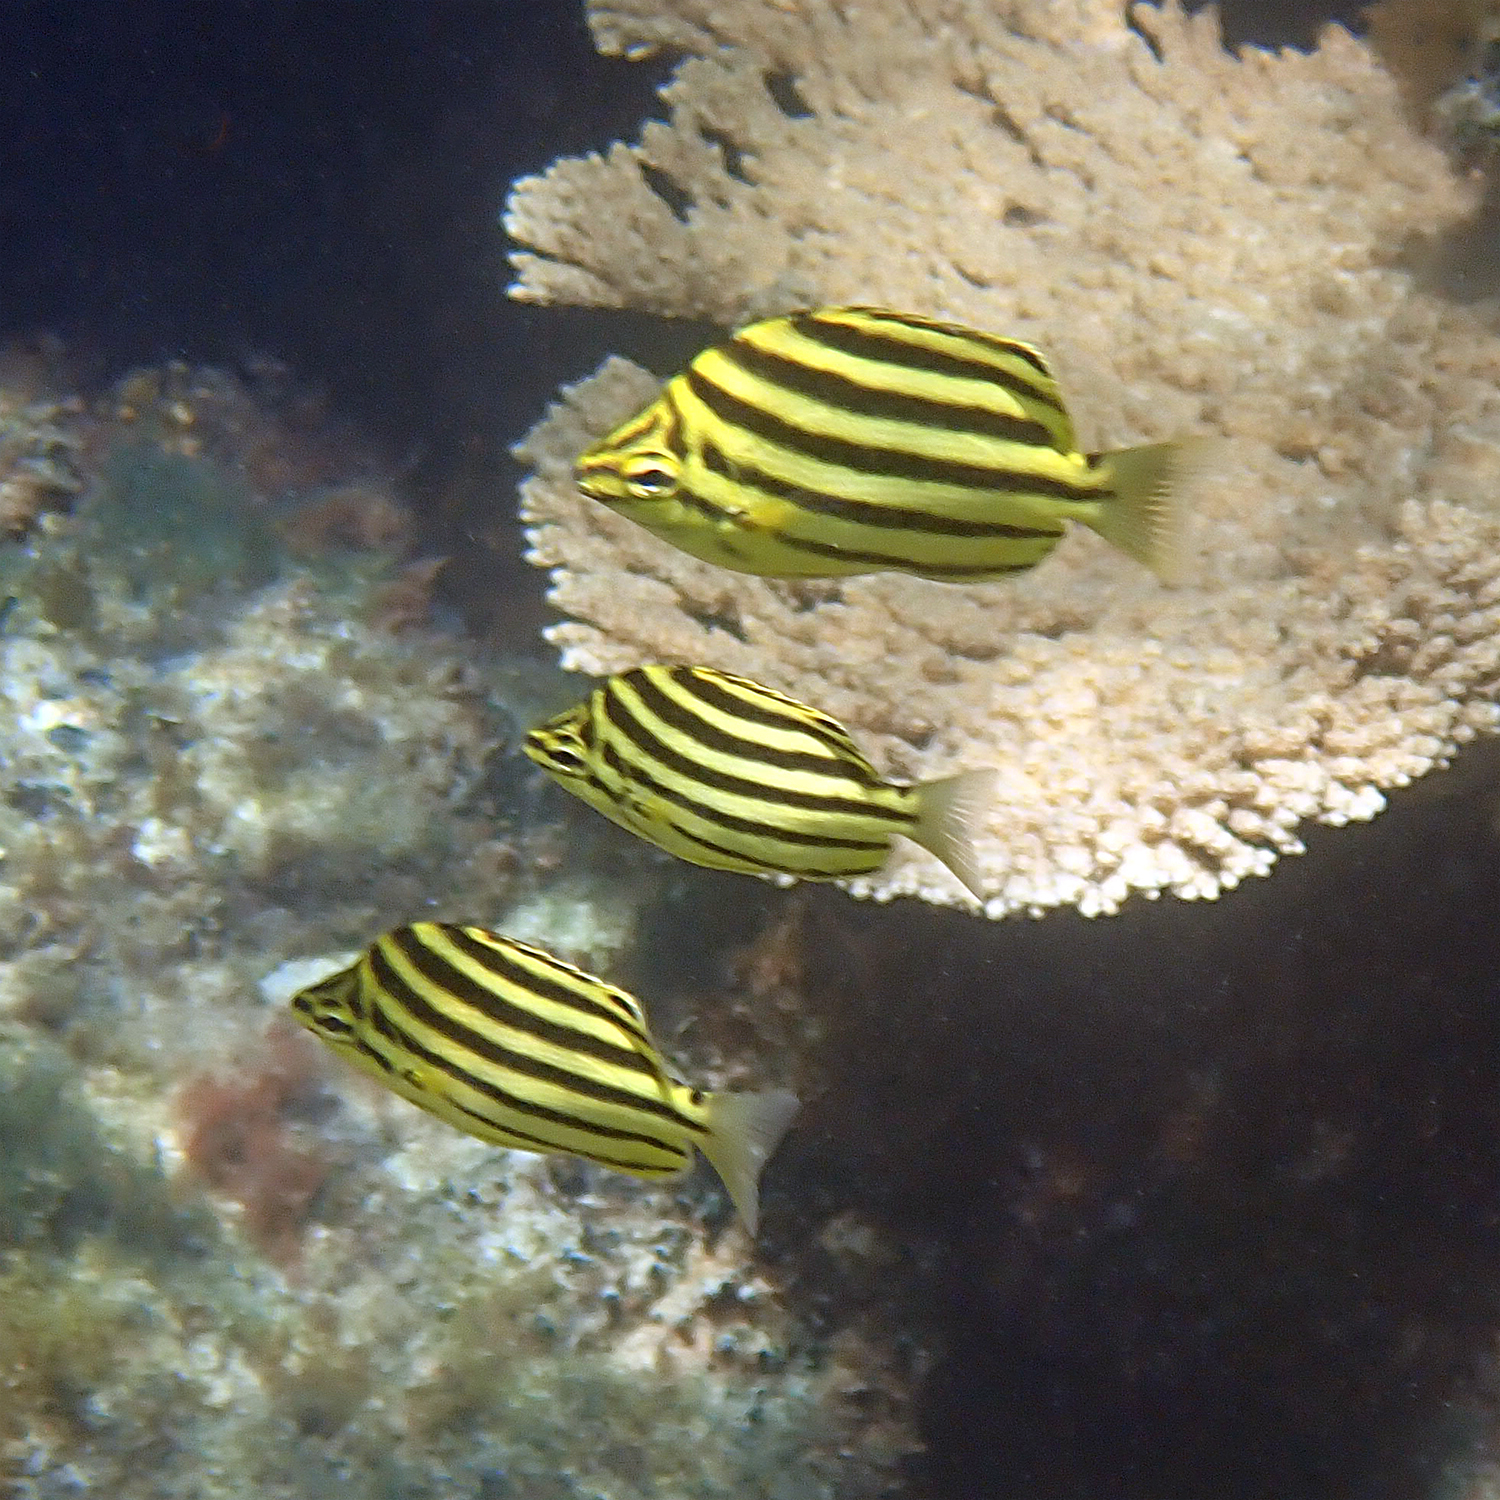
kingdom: Animalia
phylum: Chordata
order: Perciformes
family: Kyphosidae
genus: Microcanthus
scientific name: Microcanthus joyceae
